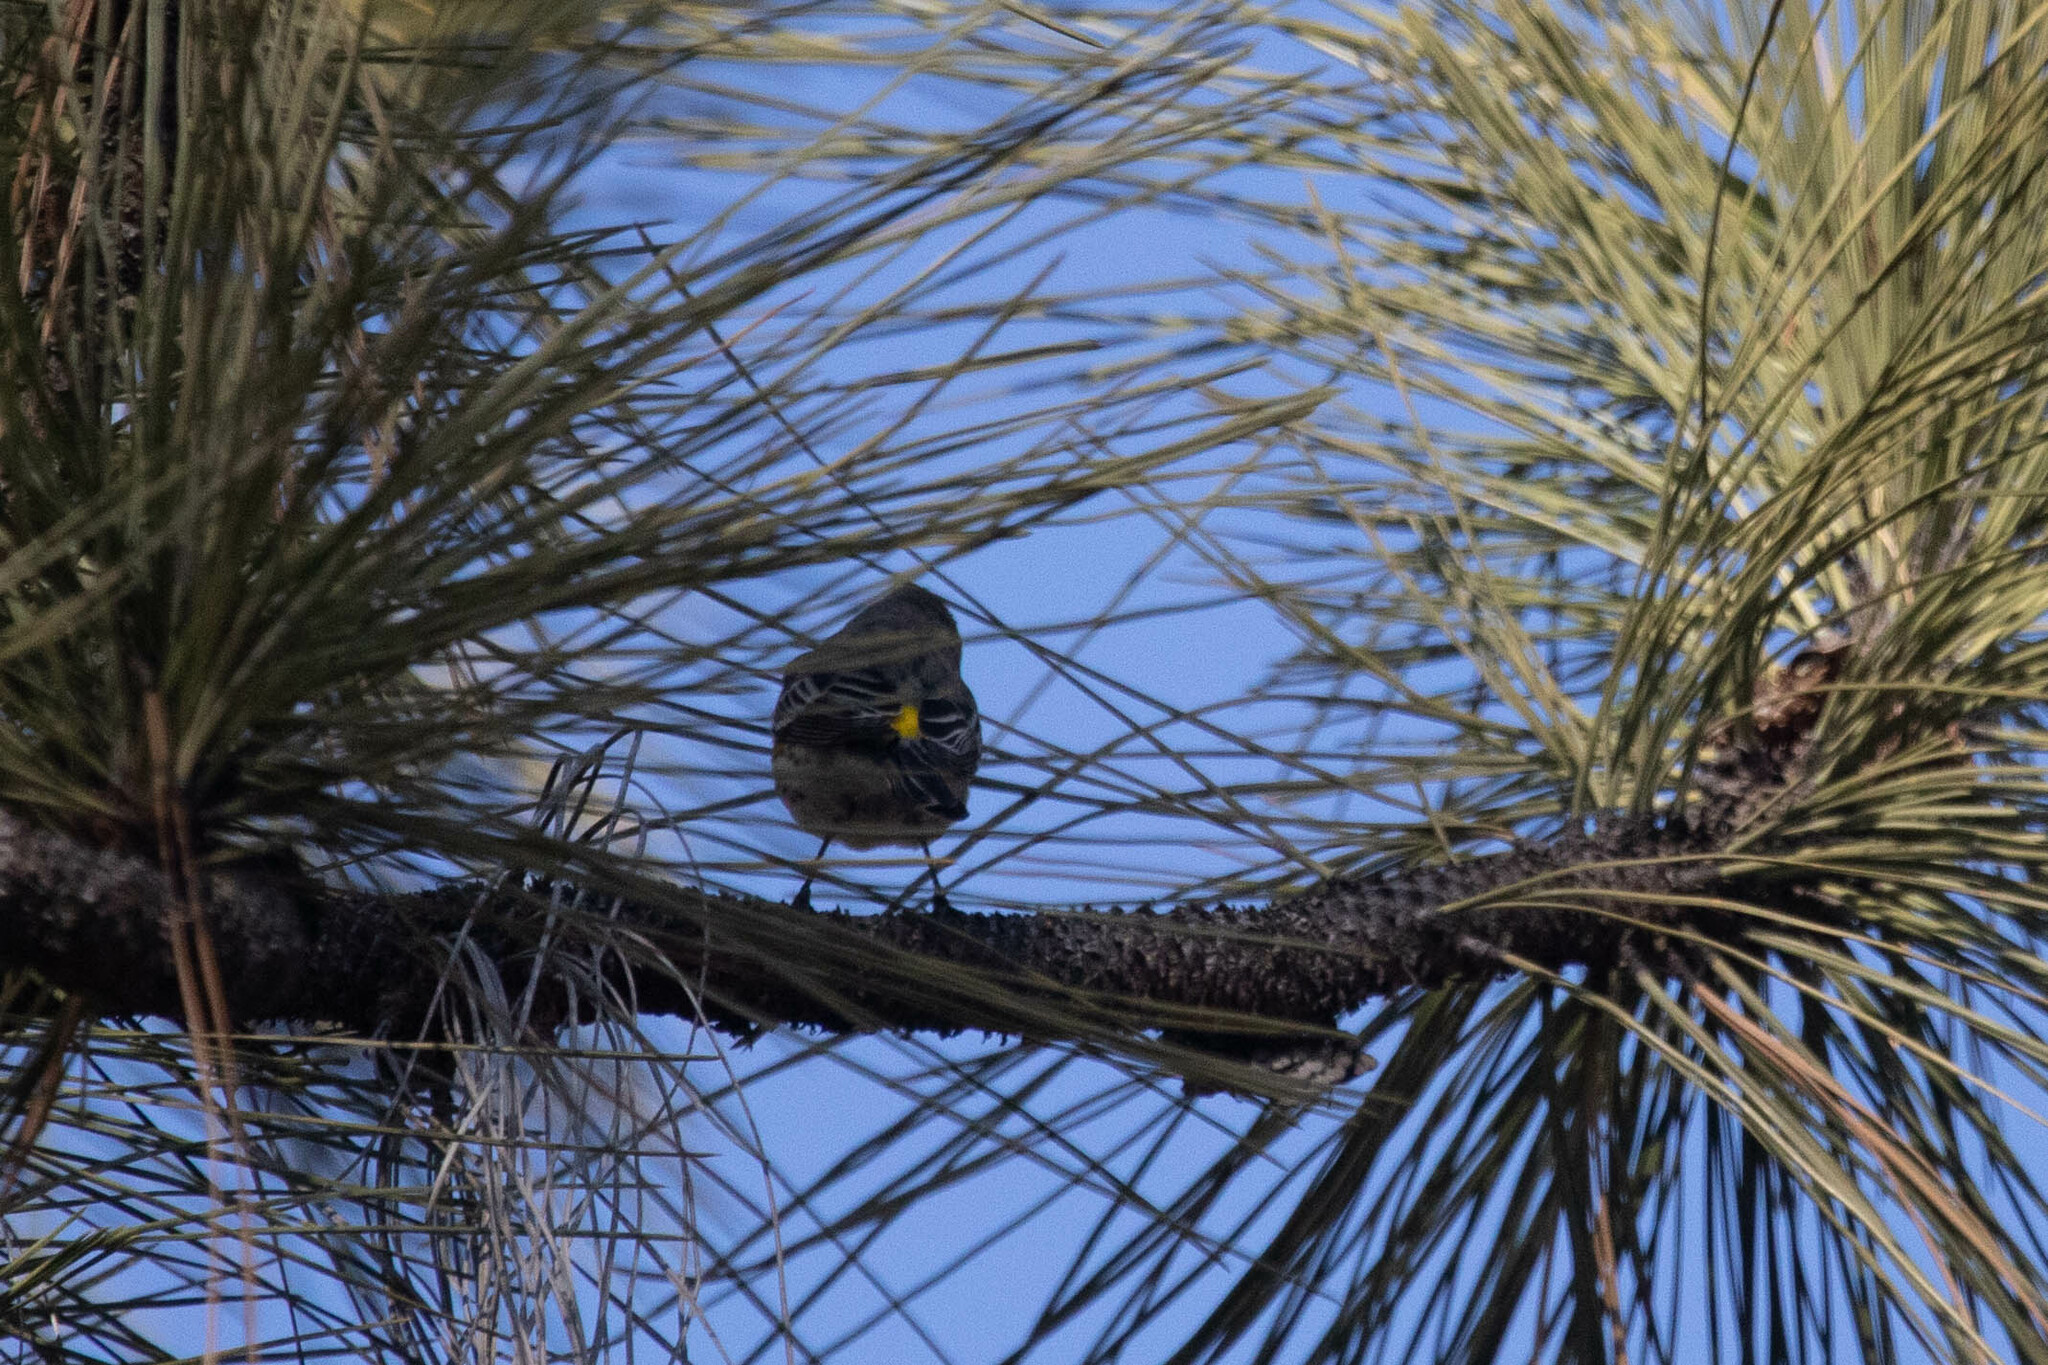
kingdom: Animalia
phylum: Chordata
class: Aves
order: Passeriformes
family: Parulidae
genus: Setophaga
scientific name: Setophaga coronata
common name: Myrtle warbler
